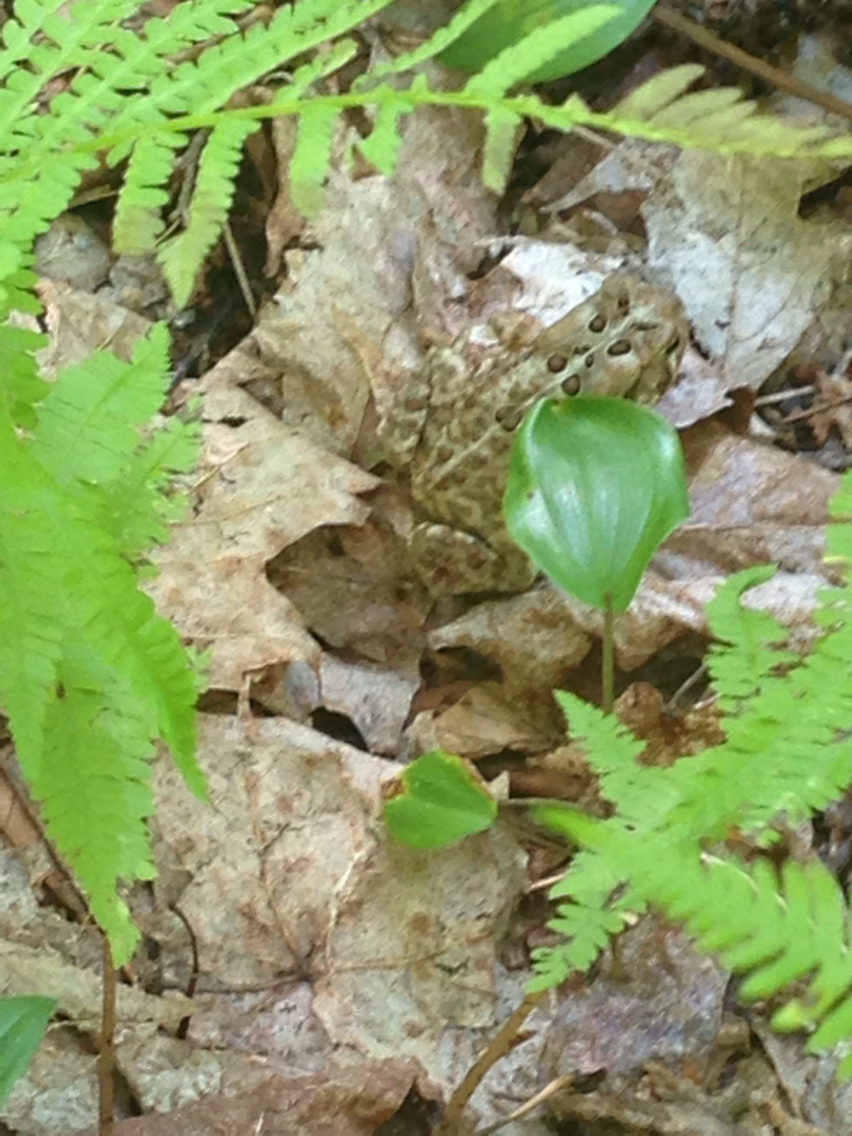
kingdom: Animalia
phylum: Chordata
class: Amphibia
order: Anura
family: Bufonidae
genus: Anaxyrus
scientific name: Anaxyrus americanus
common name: American toad
